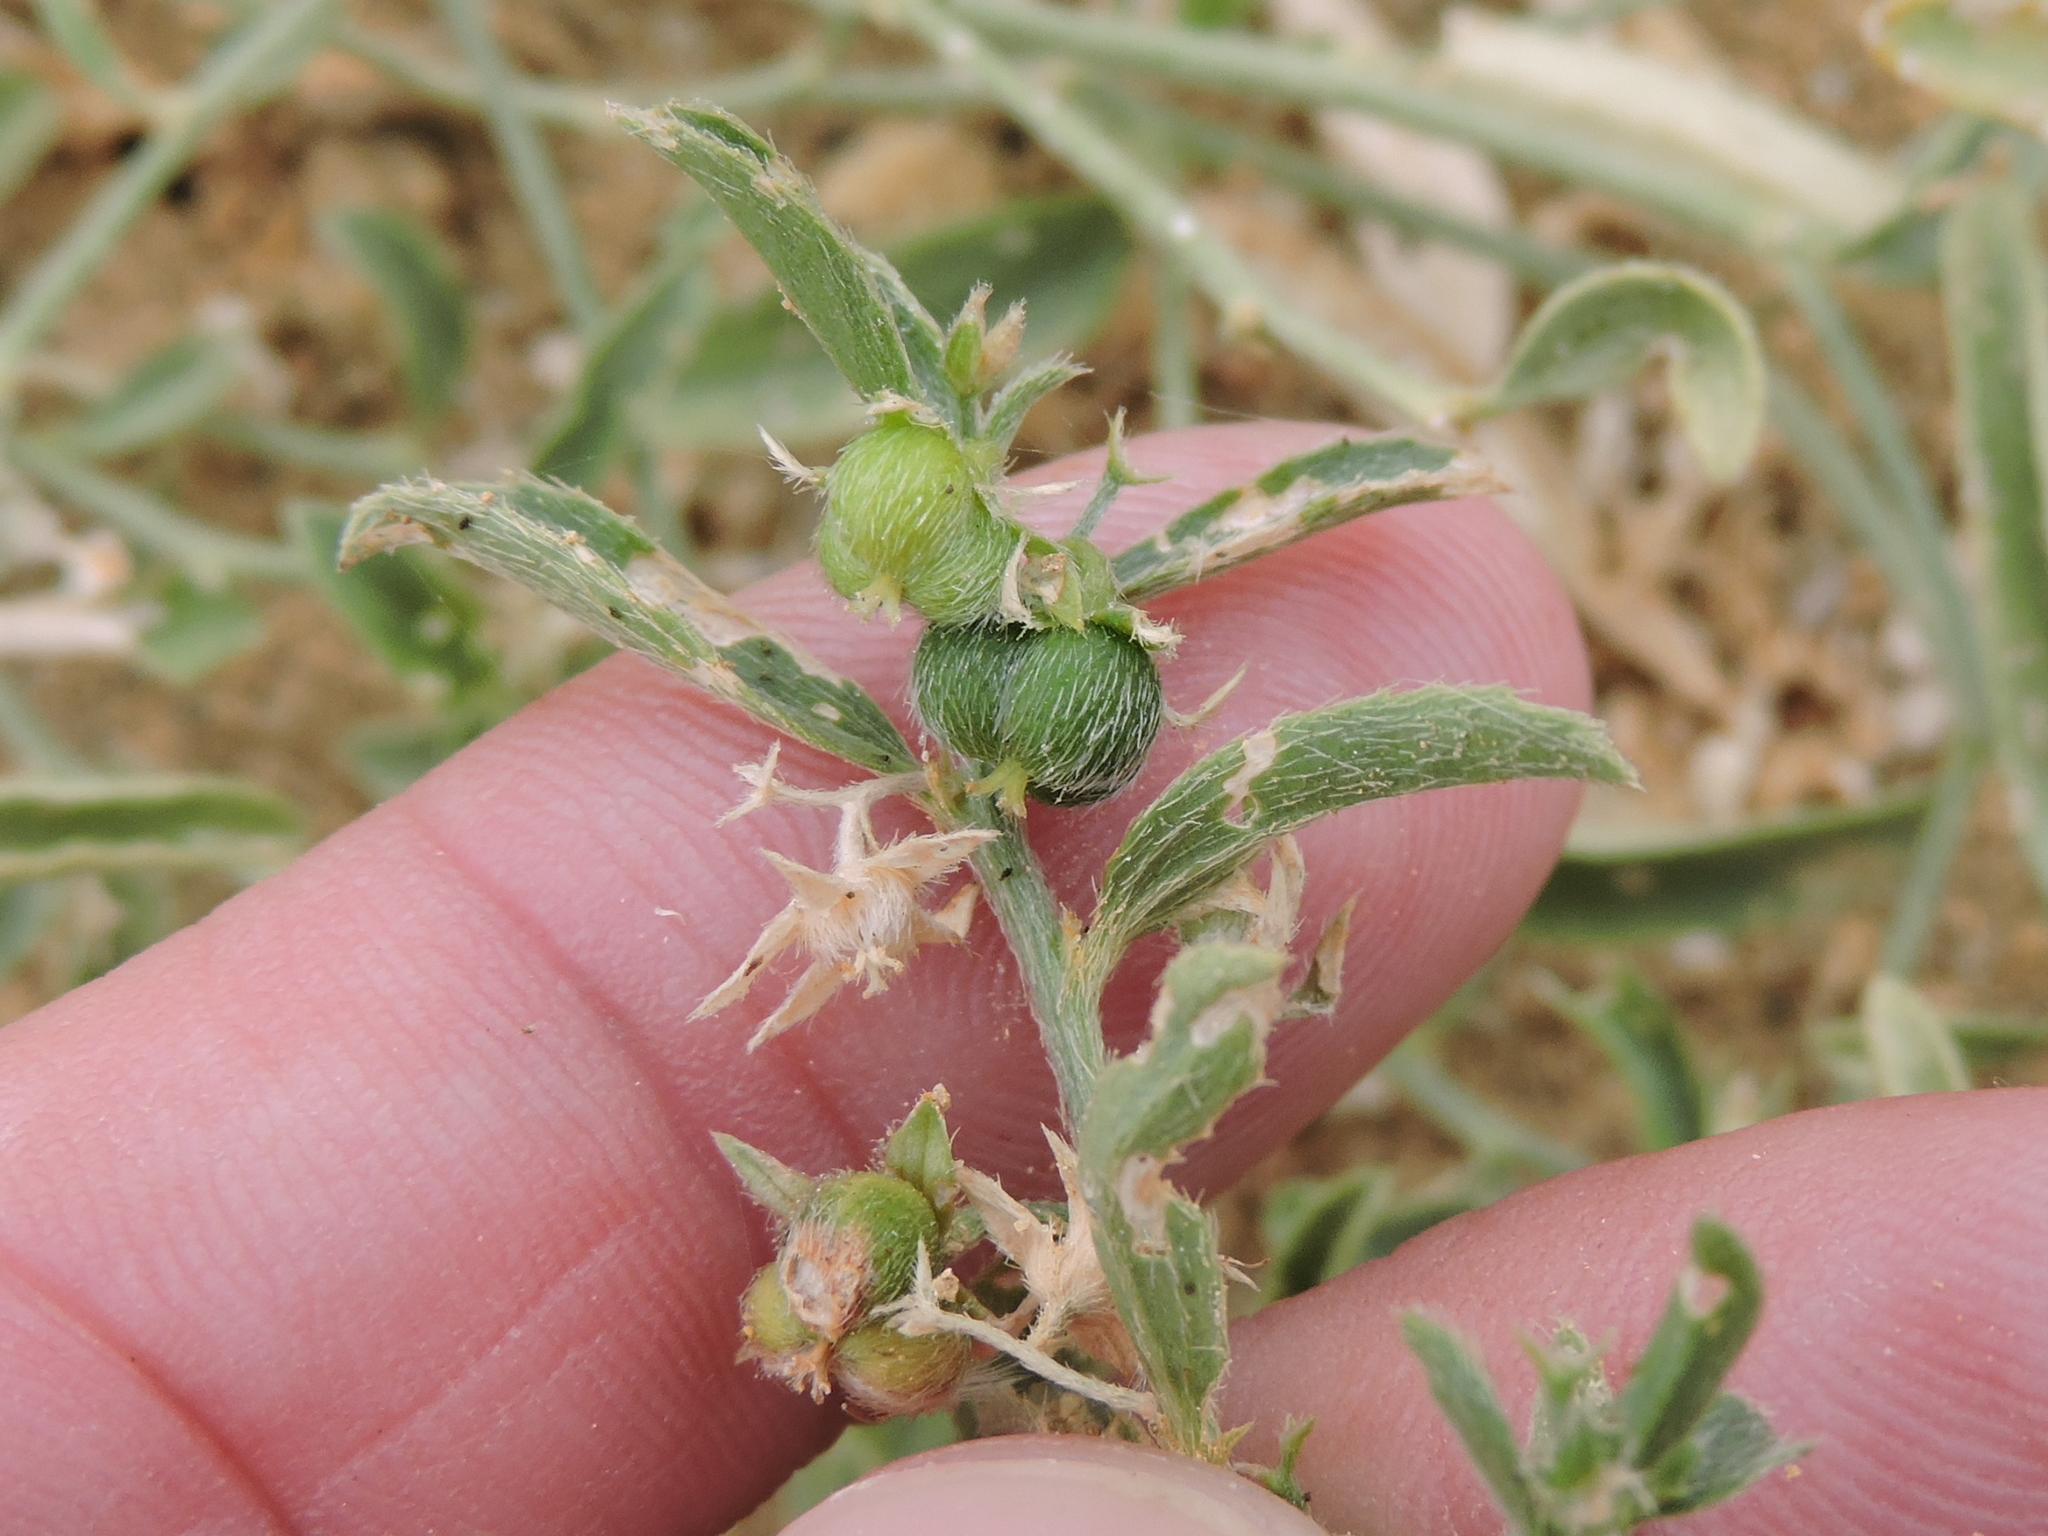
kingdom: Plantae
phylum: Tracheophyta
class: Magnoliopsida
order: Malpighiales
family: Euphorbiaceae
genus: Ditaxis
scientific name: Ditaxis humilis
